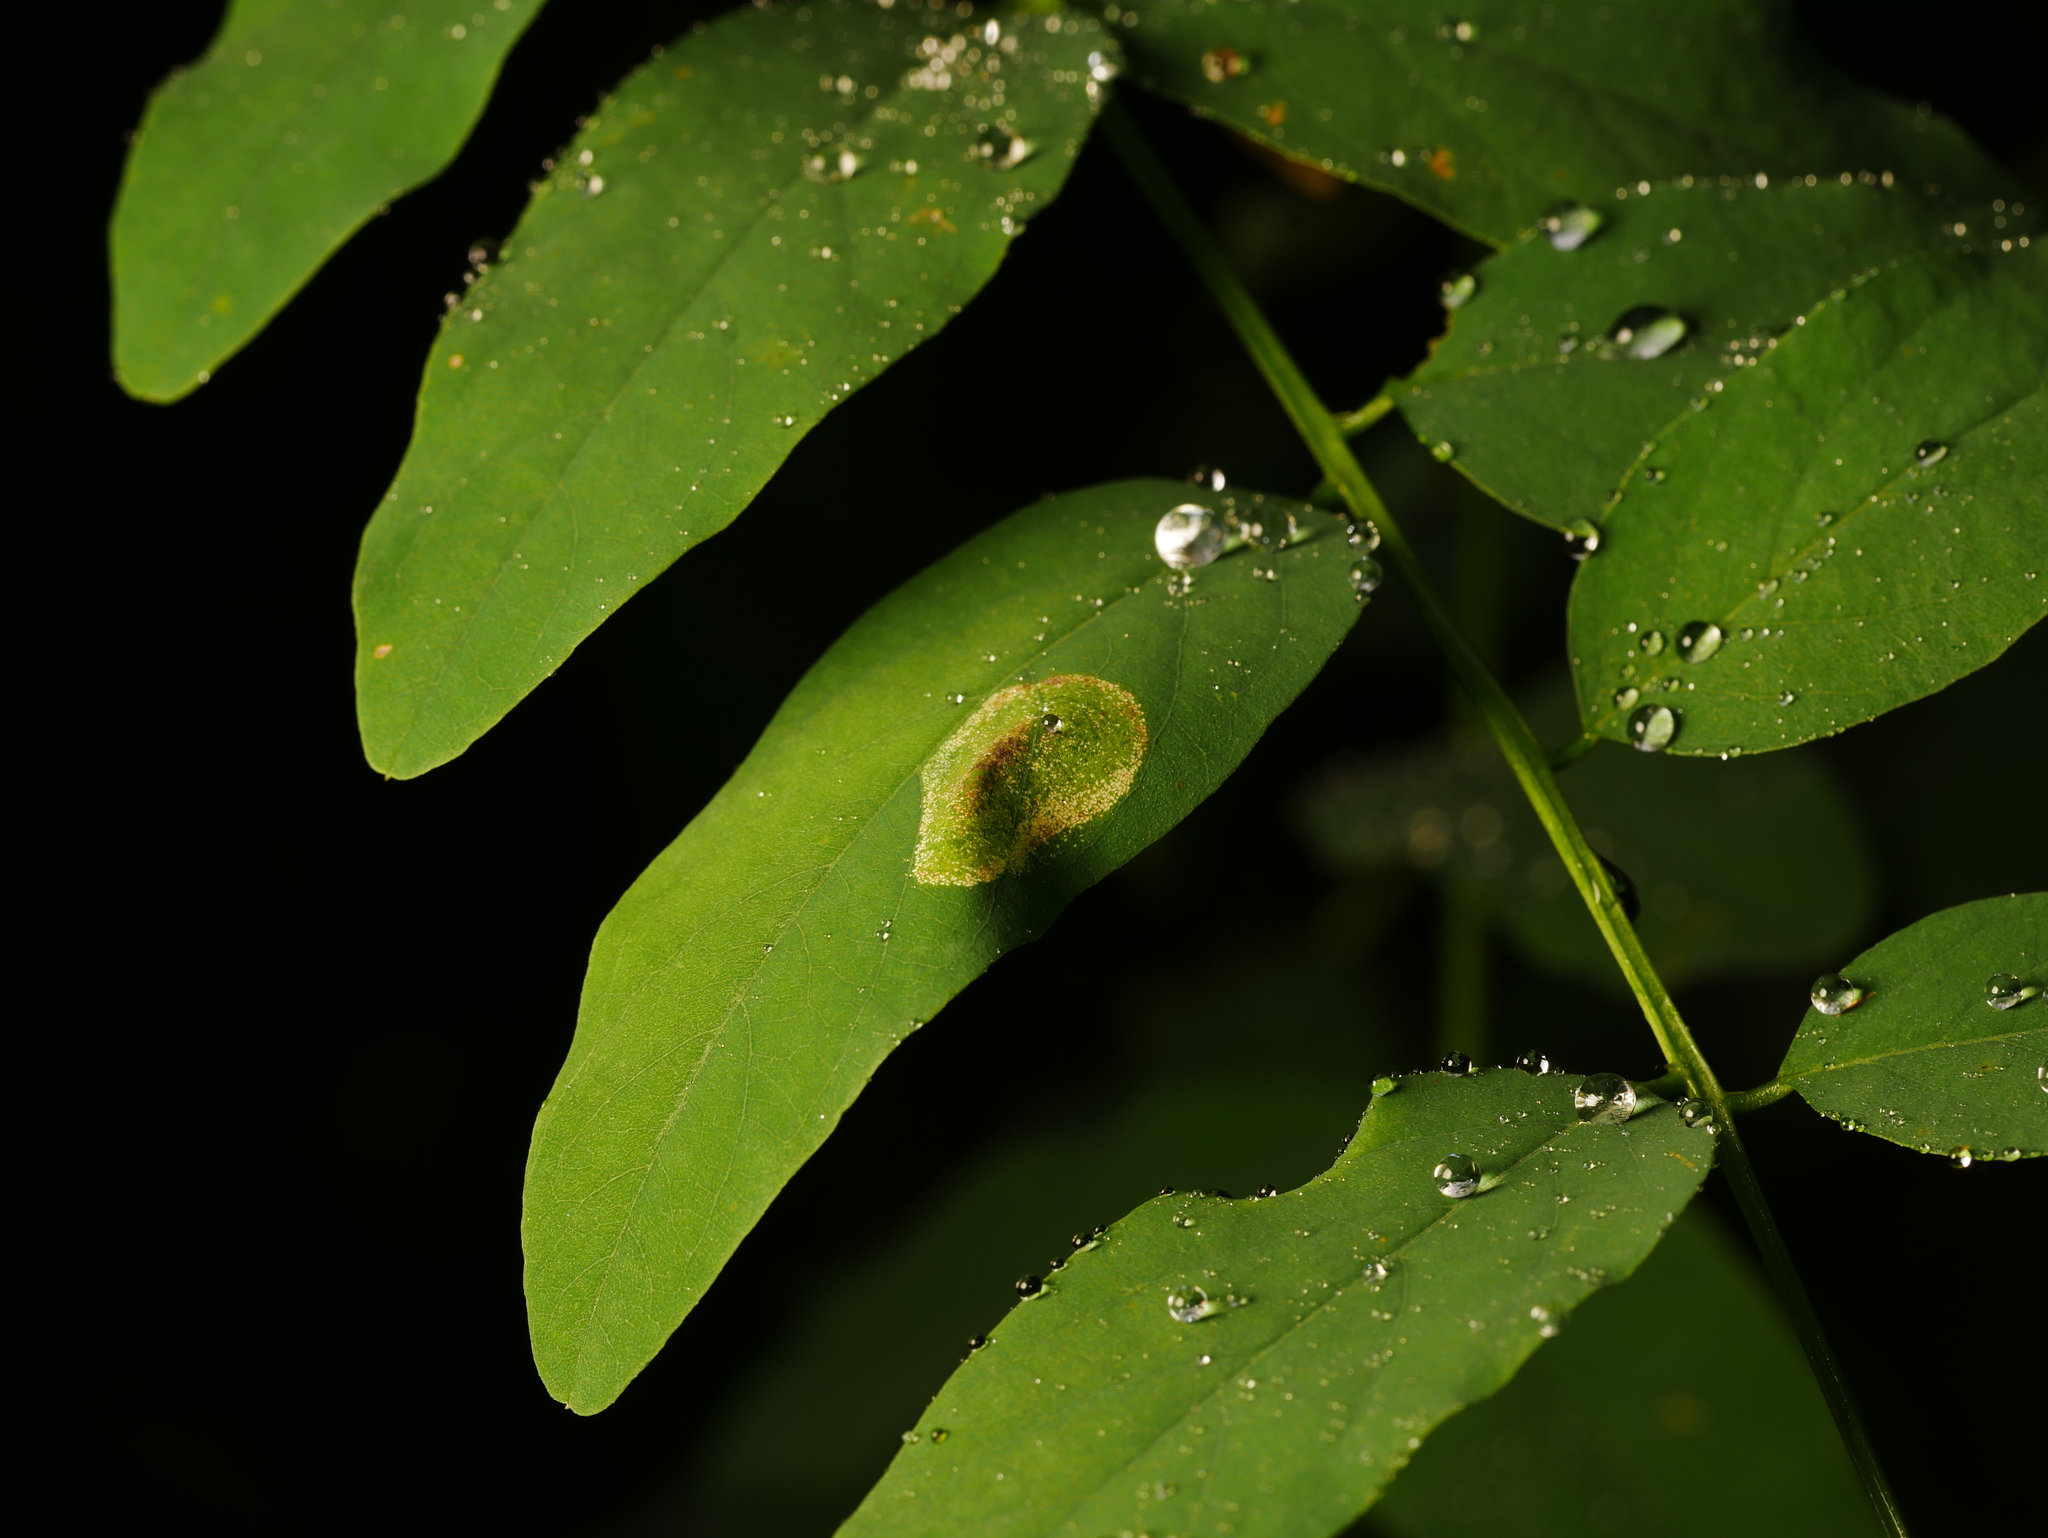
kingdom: Animalia
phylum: Arthropoda
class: Insecta
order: Lepidoptera
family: Gracillariidae
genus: Macrosaccus
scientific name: Macrosaccus robiniella
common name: Leaf blotch miner moth
